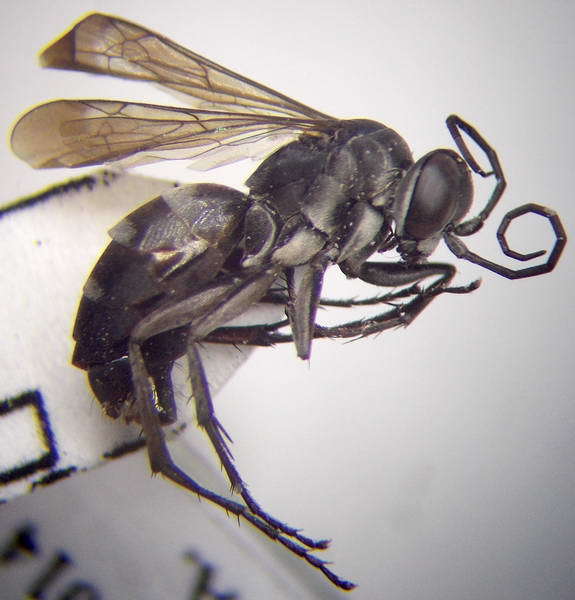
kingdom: Animalia
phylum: Arthropoda
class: Insecta
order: Hymenoptera
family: Pompilidae
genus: Aporinellus
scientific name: Aporinellus sexmaculatus
